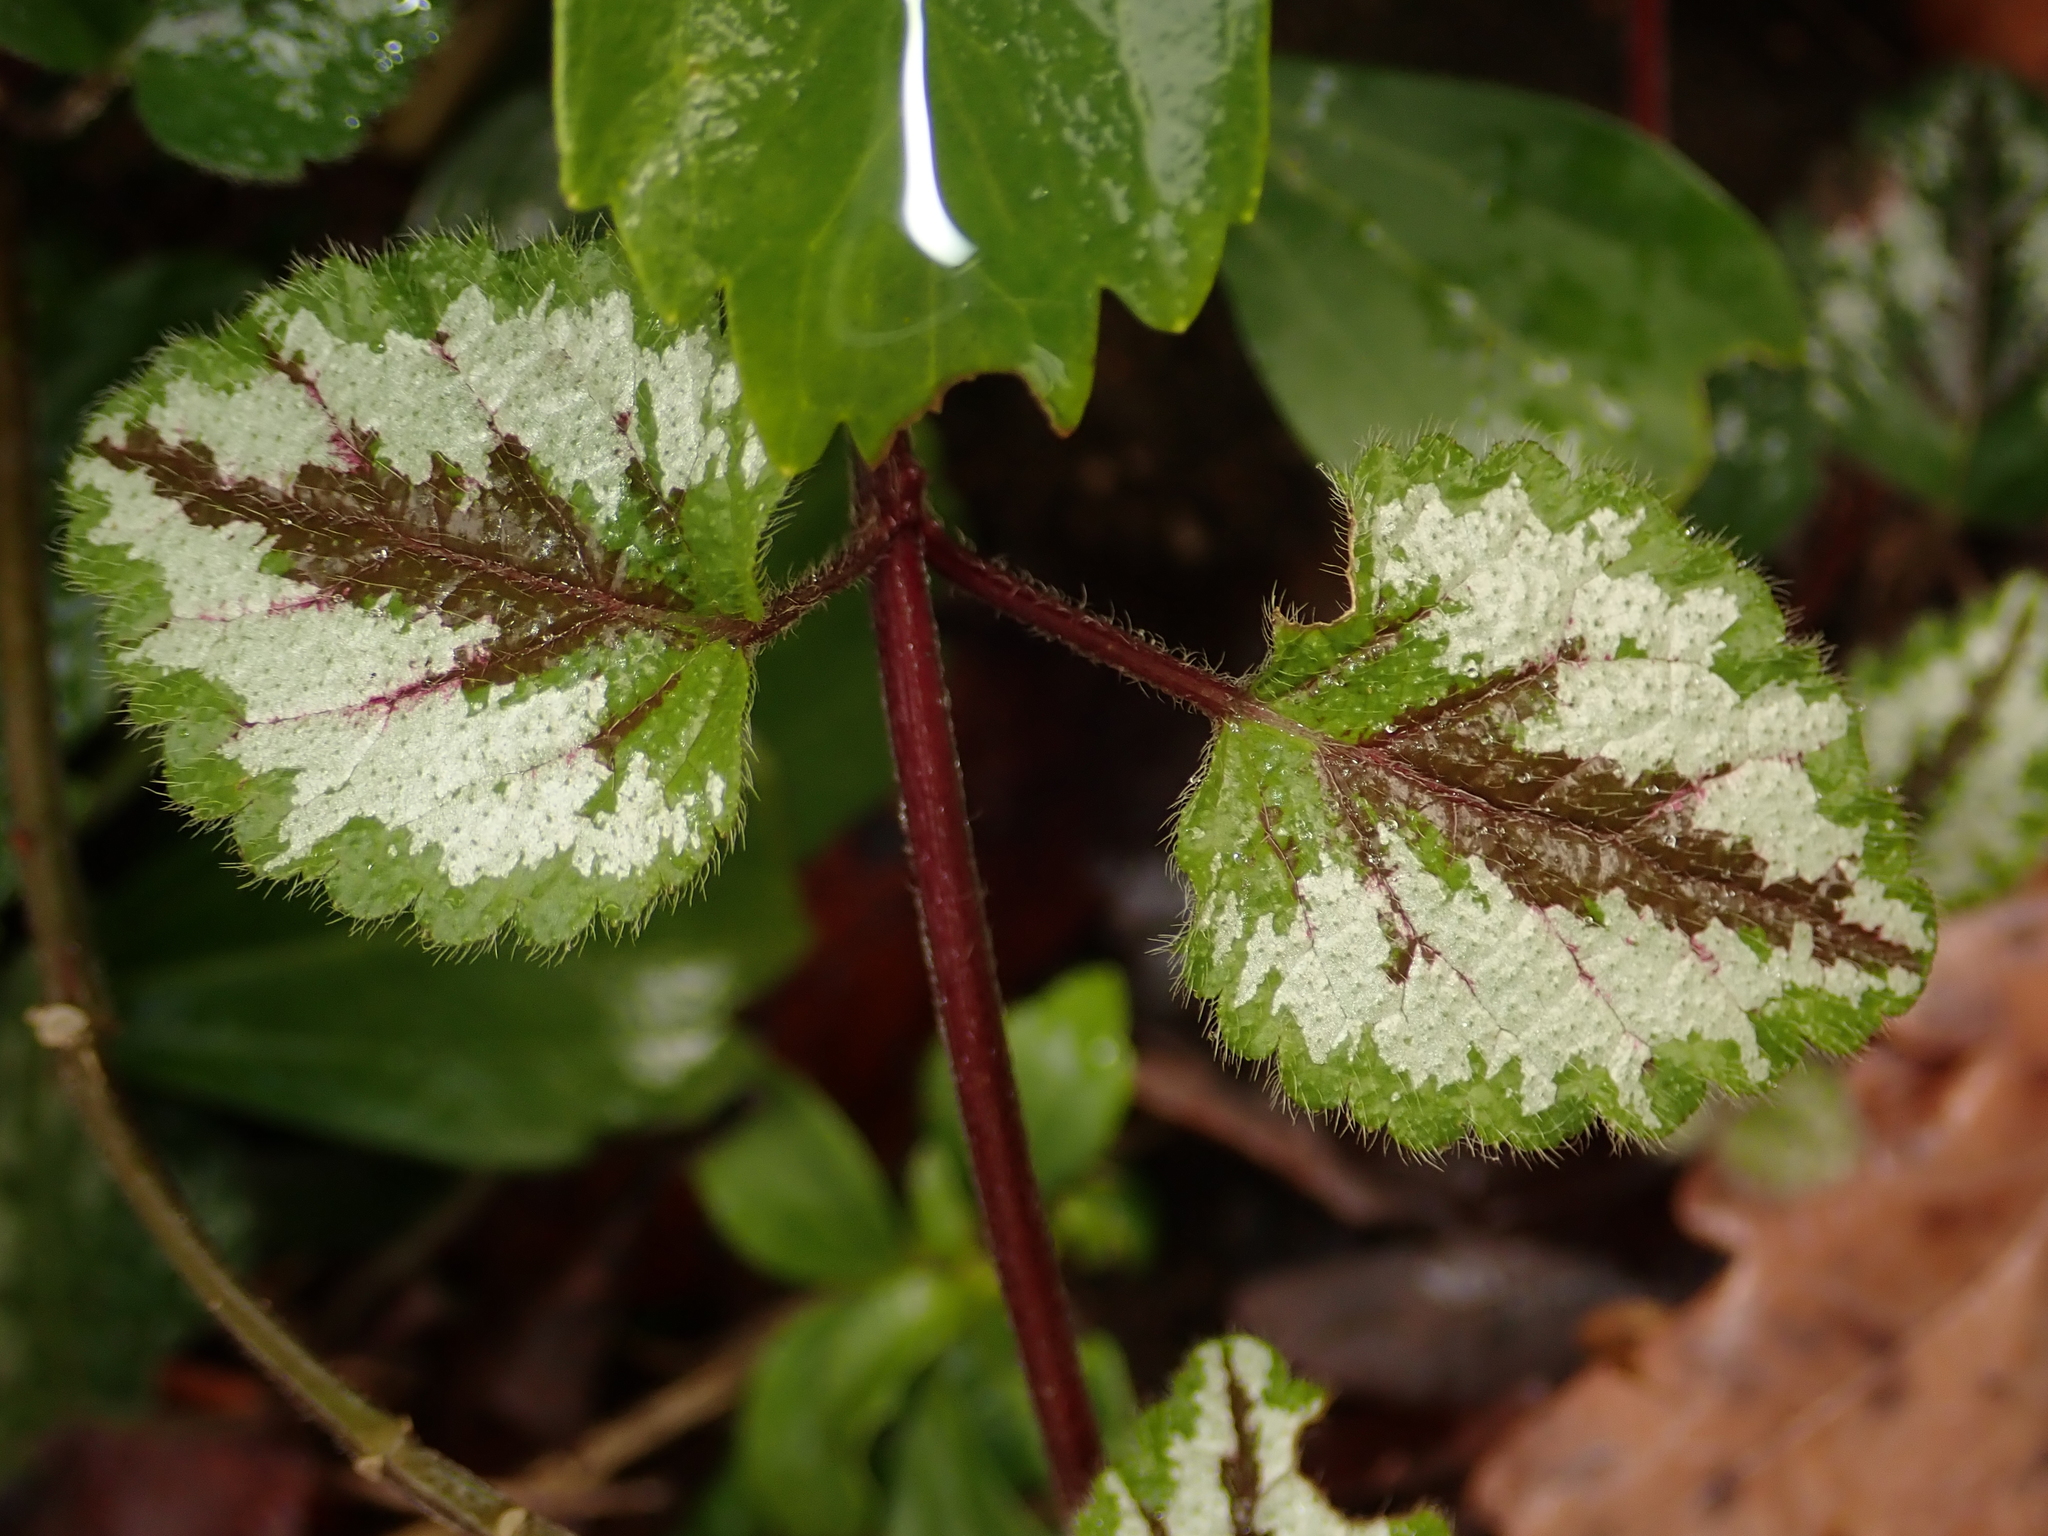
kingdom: Plantae
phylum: Tracheophyta
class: Magnoliopsida
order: Lamiales
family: Lamiaceae
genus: Lamium
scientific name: Lamium galeobdolon
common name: Yellow archangel
